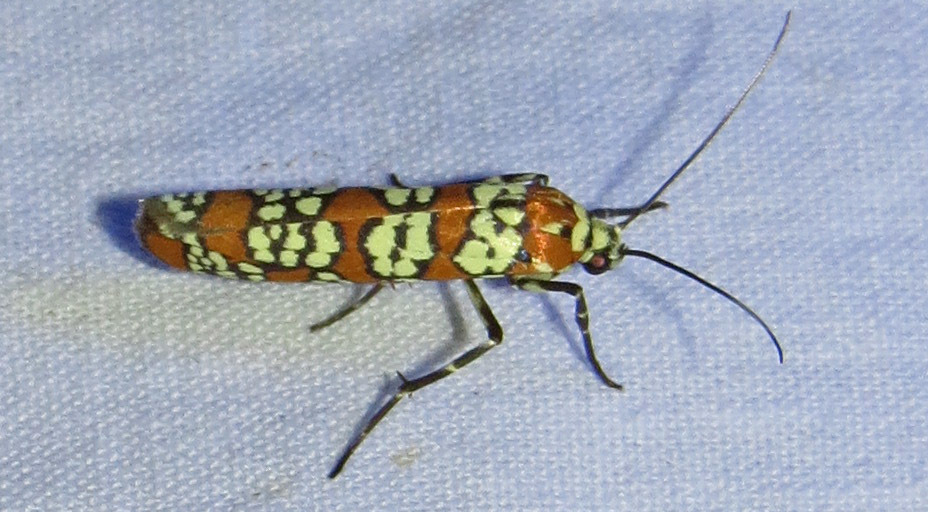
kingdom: Animalia
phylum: Arthropoda
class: Insecta
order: Lepidoptera
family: Attevidae
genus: Atteva
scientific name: Atteva punctella
